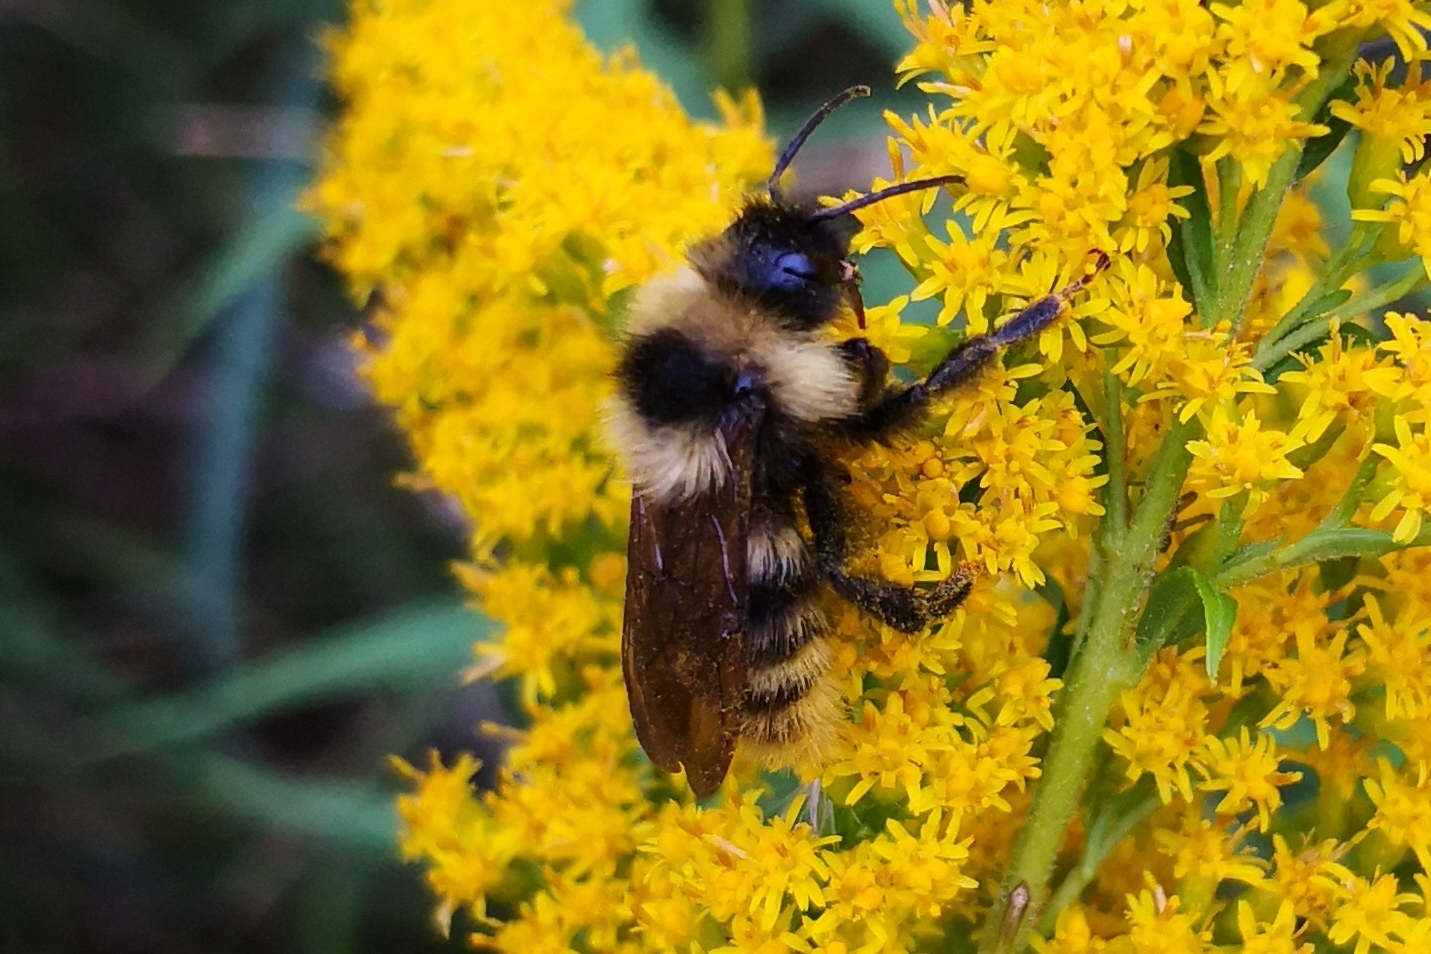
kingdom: Animalia
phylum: Arthropoda
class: Insecta
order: Hymenoptera
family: Apidae
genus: Bombus
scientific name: Bombus campestris
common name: Field cuckoo-bee
